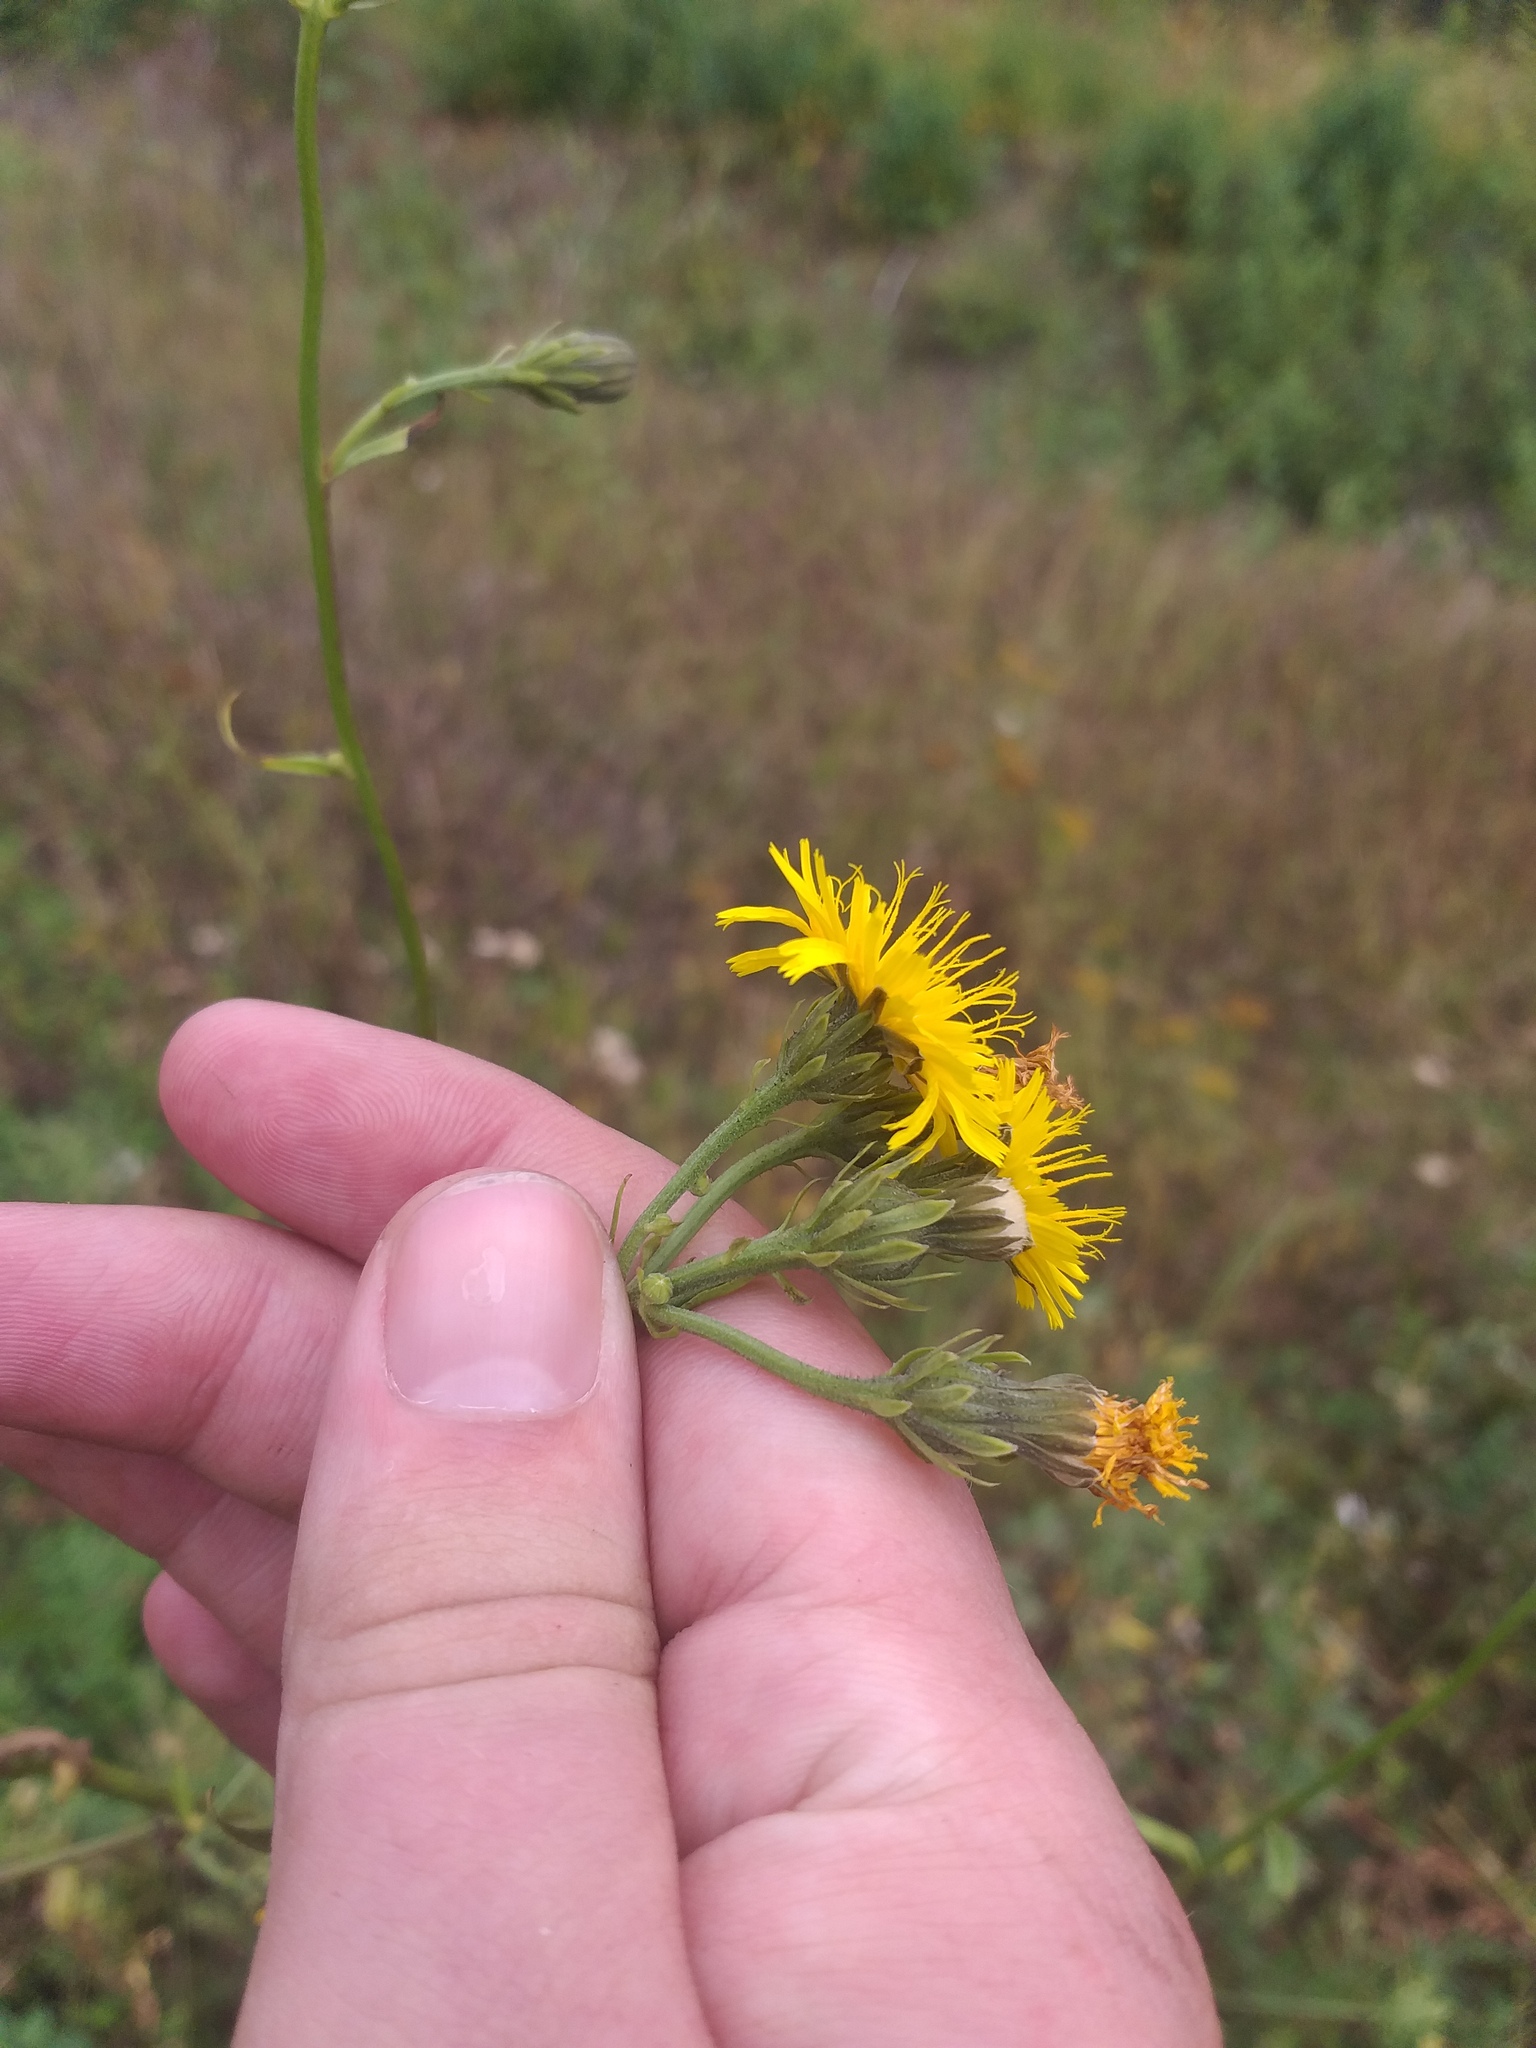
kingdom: Plantae
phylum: Tracheophyta
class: Magnoliopsida
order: Asterales
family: Asteraceae
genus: Picris
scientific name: Picris hieracioides
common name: Hawkweed oxtongue
